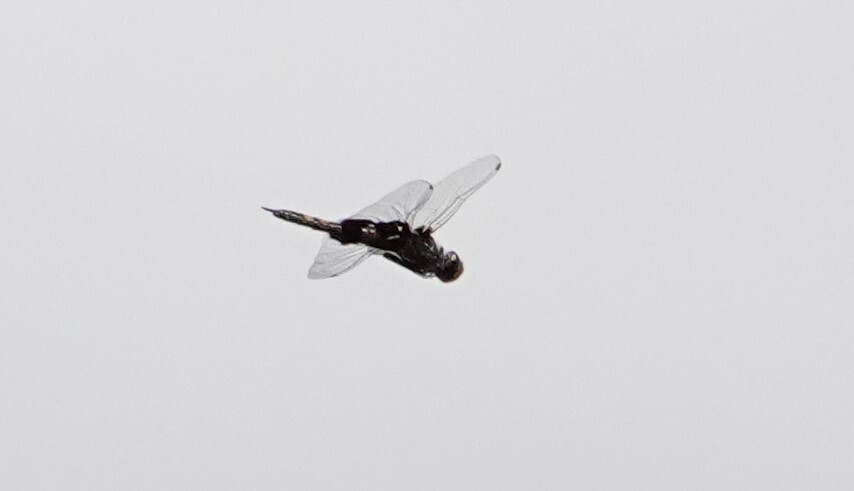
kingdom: Animalia
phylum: Arthropoda
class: Insecta
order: Odonata
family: Libellulidae
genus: Tramea
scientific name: Tramea lacerata
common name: Black saddlebags
